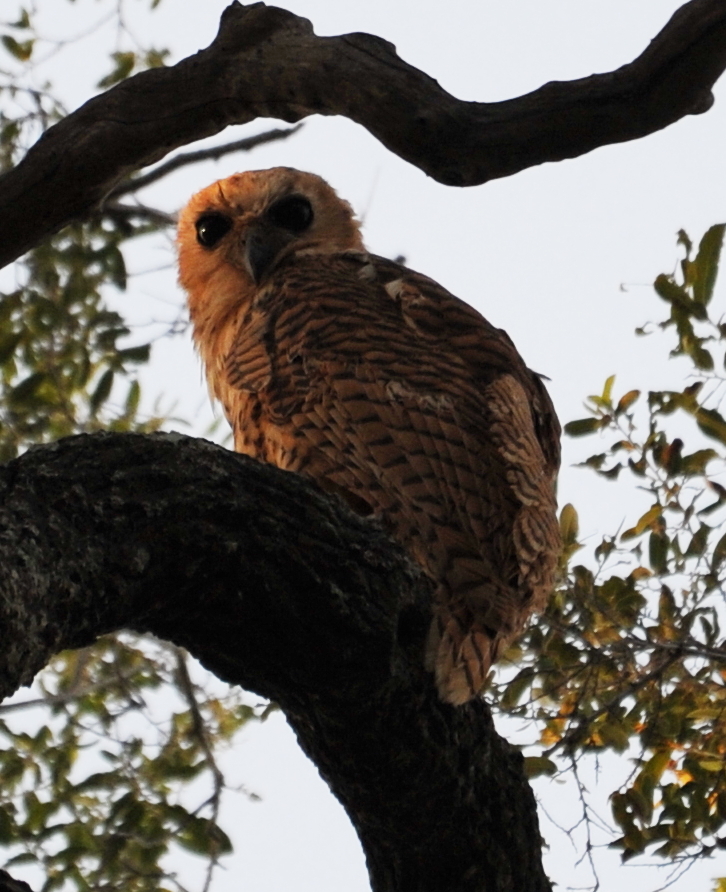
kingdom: Animalia
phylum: Chordata
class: Aves
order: Strigiformes
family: Strigidae
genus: Scotopelia
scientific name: Scotopelia peli
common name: Pel's fishing owl
